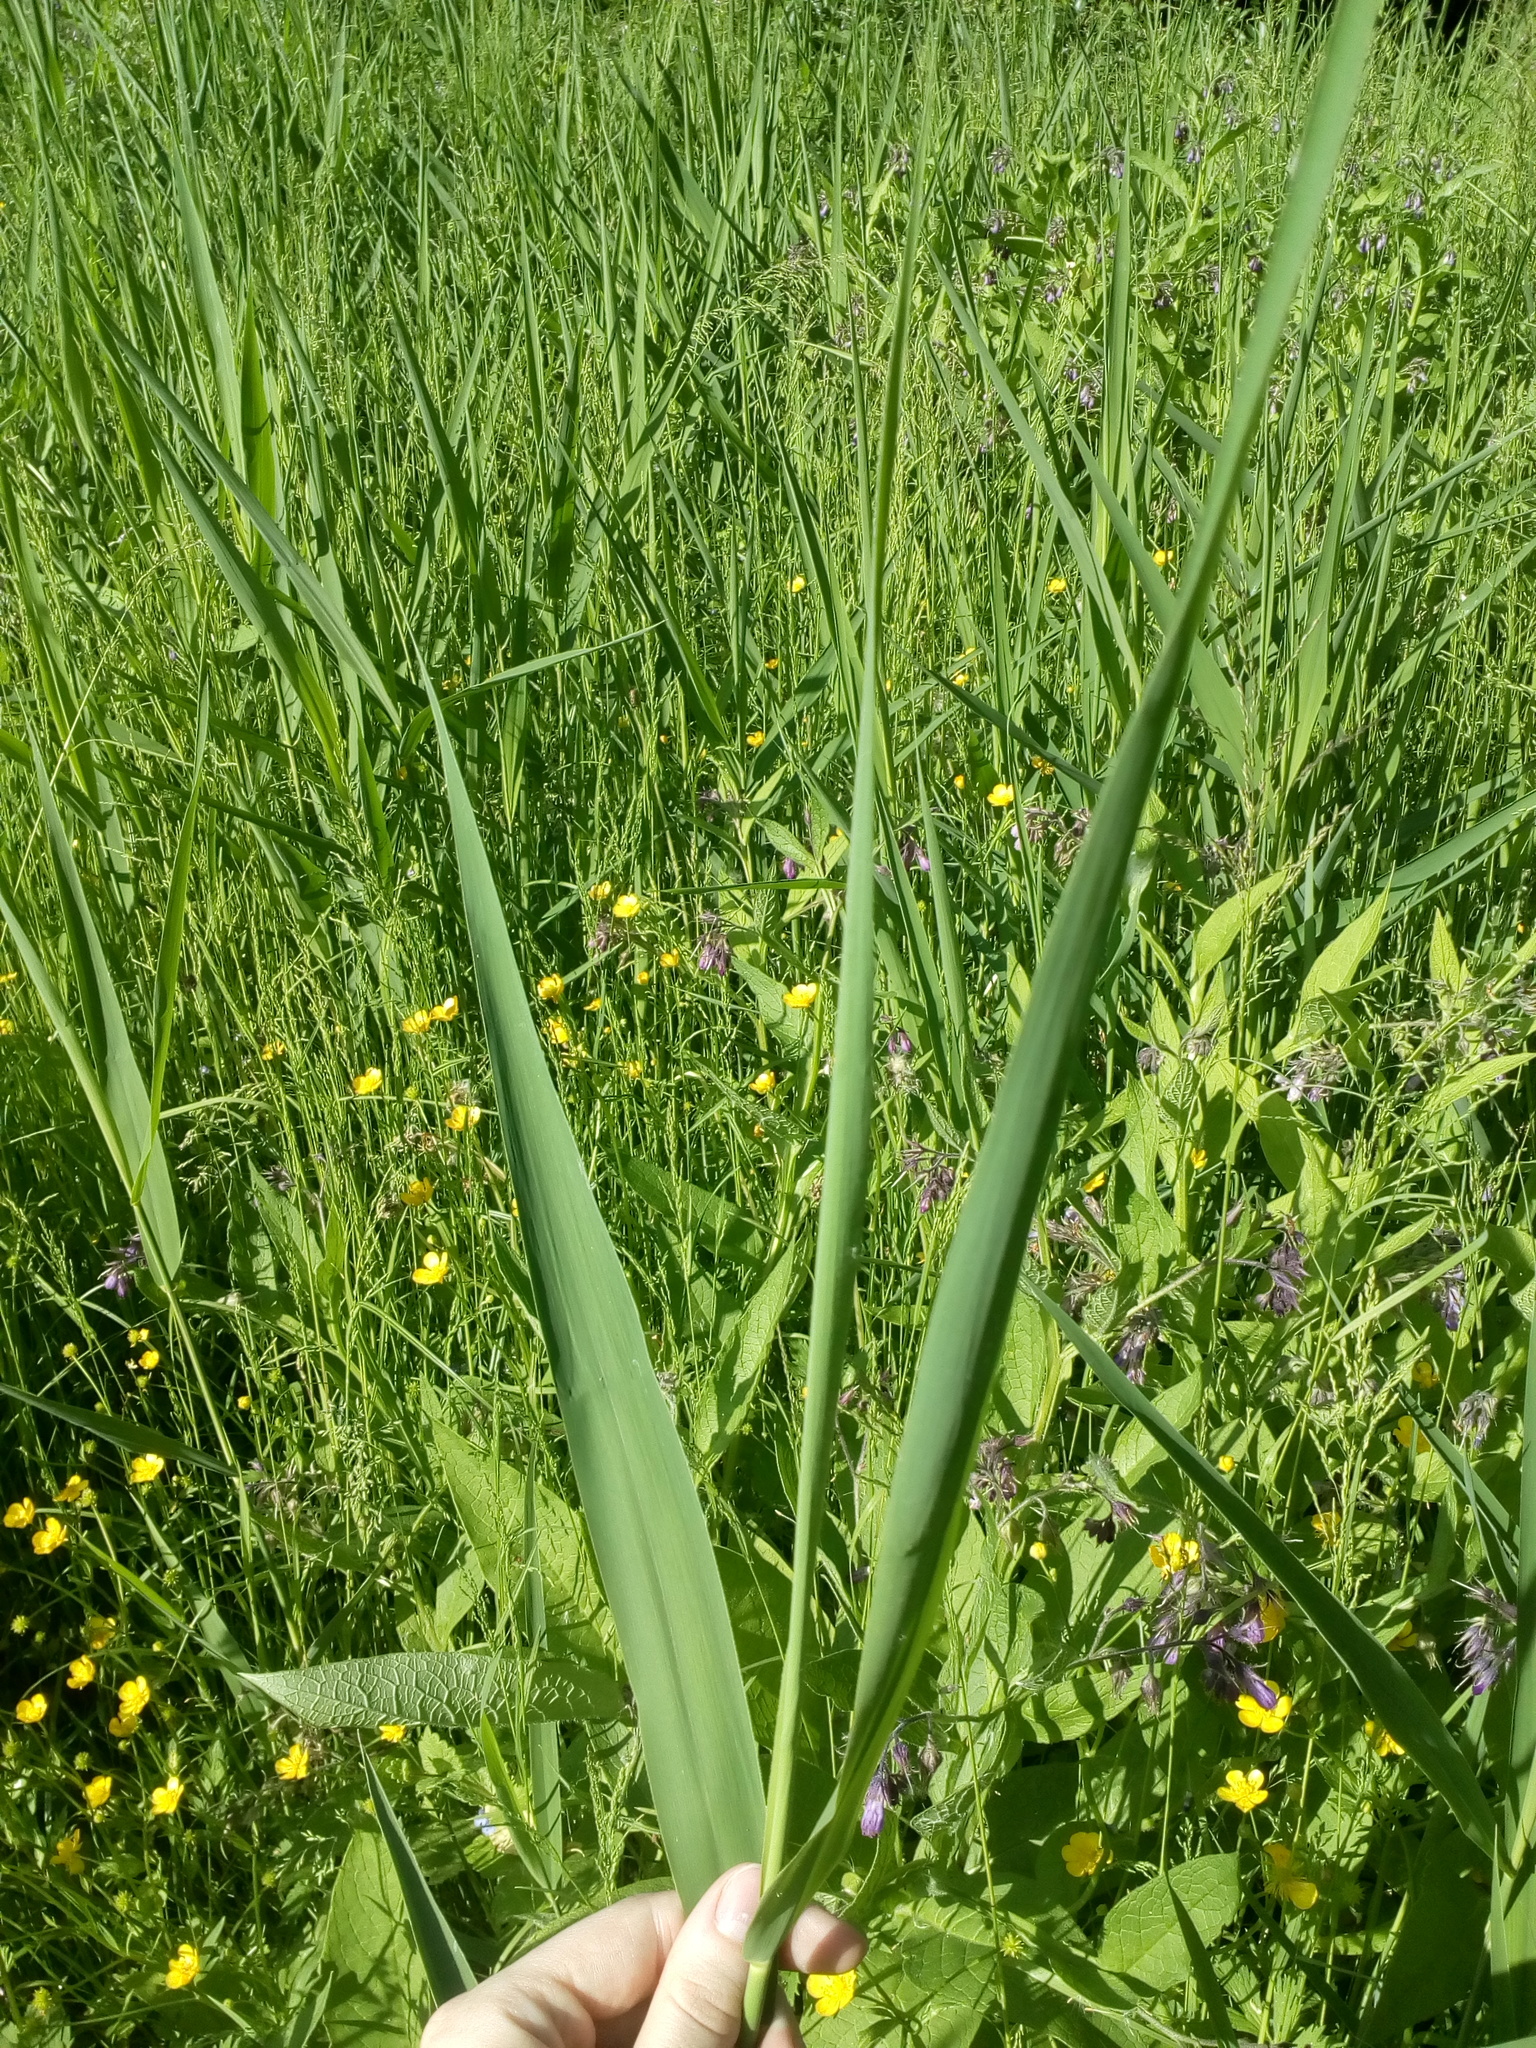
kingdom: Plantae
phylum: Tracheophyta
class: Liliopsida
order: Poales
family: Poaceae
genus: Phragmites
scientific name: Phragmites australis
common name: Common reed
